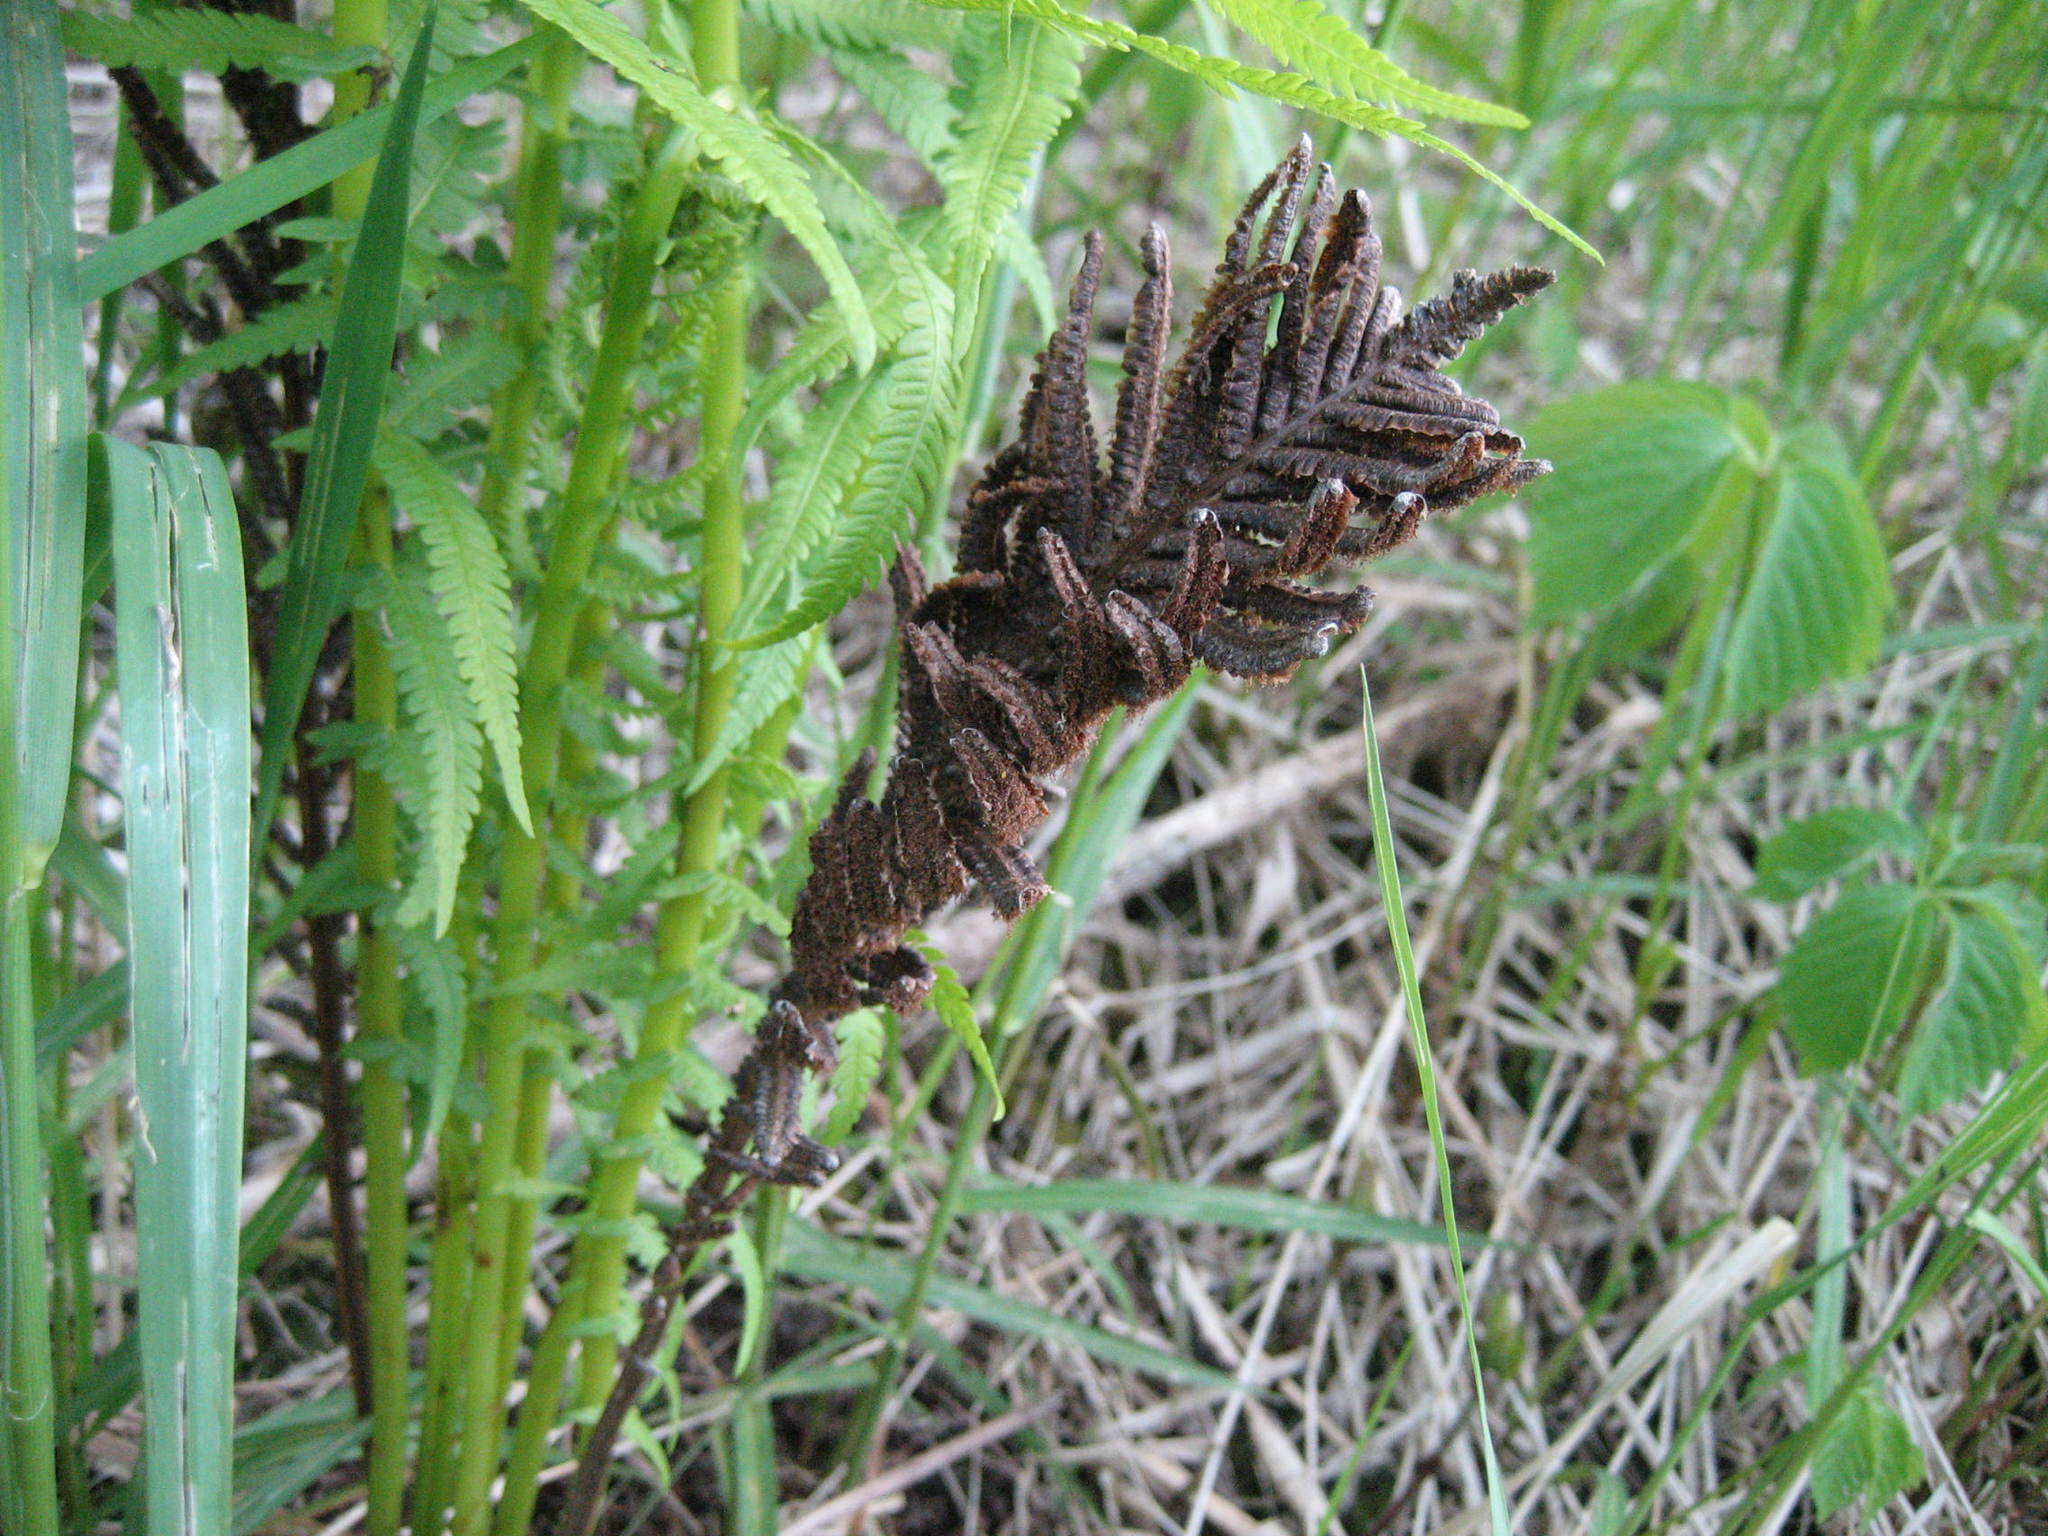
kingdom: Plantae
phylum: Tracheophyta
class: Polypodiopsida
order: Polypodiales
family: Onocleaceae
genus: Matteuccia
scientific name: Matteuccia struthiopteris
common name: Ostrich fern
